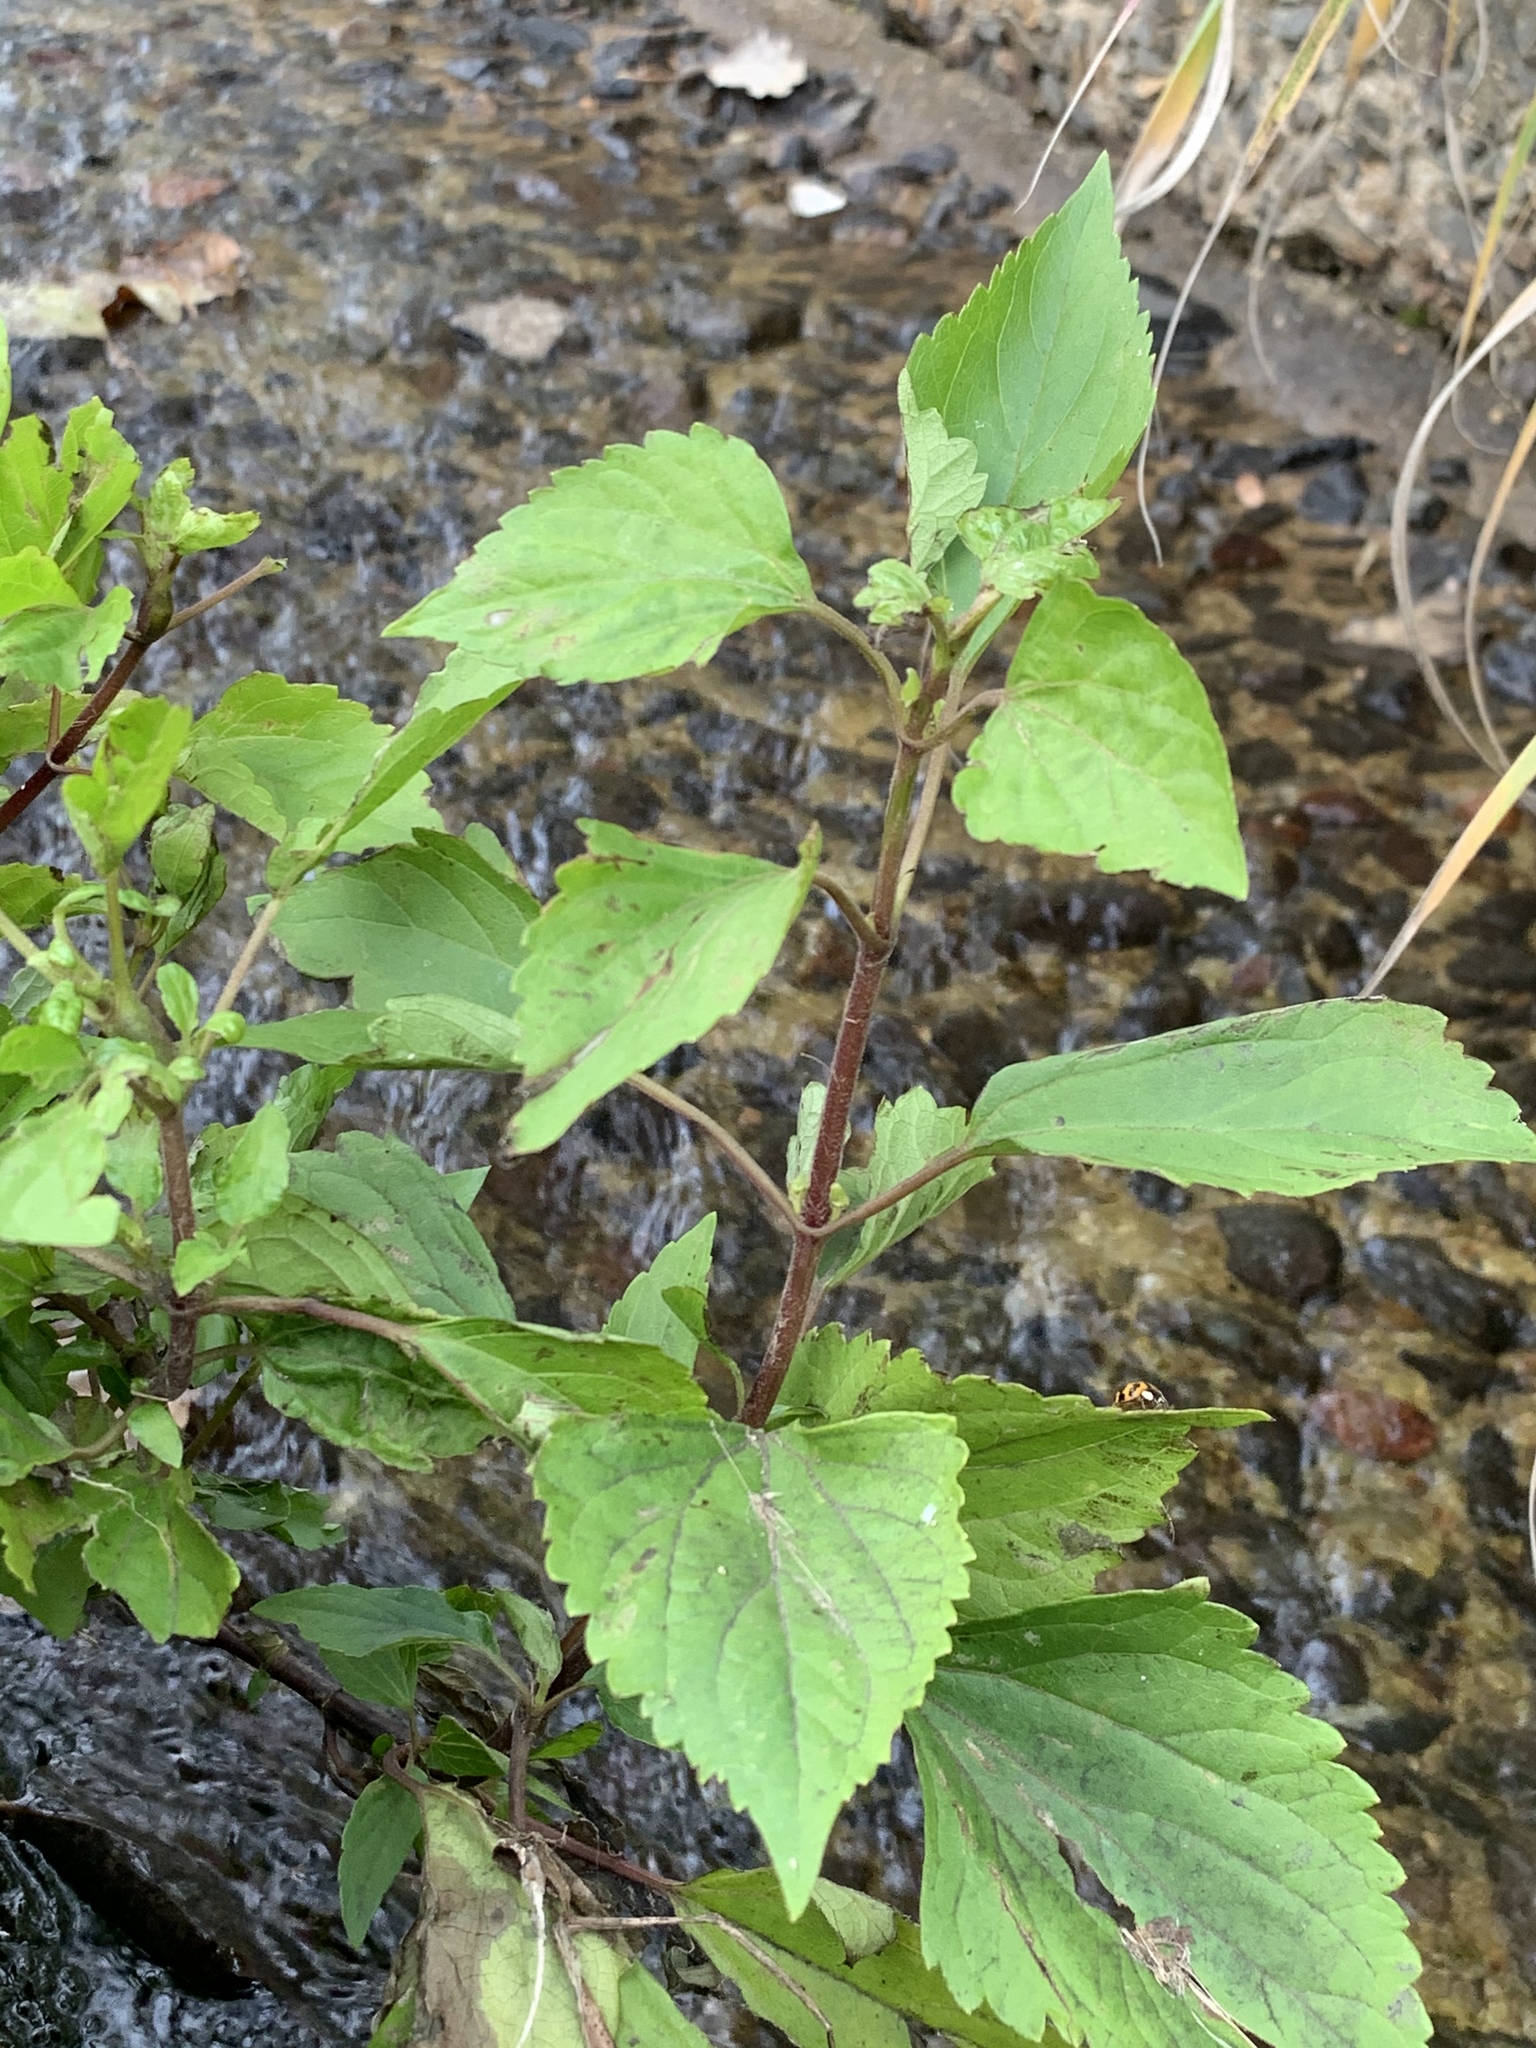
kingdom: Plantae
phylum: Tracheophyta
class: Magnoliopsida
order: Asterales
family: Asteraceae
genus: Ageratina
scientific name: Ageratina adenophora
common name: Sticky snakeroot
